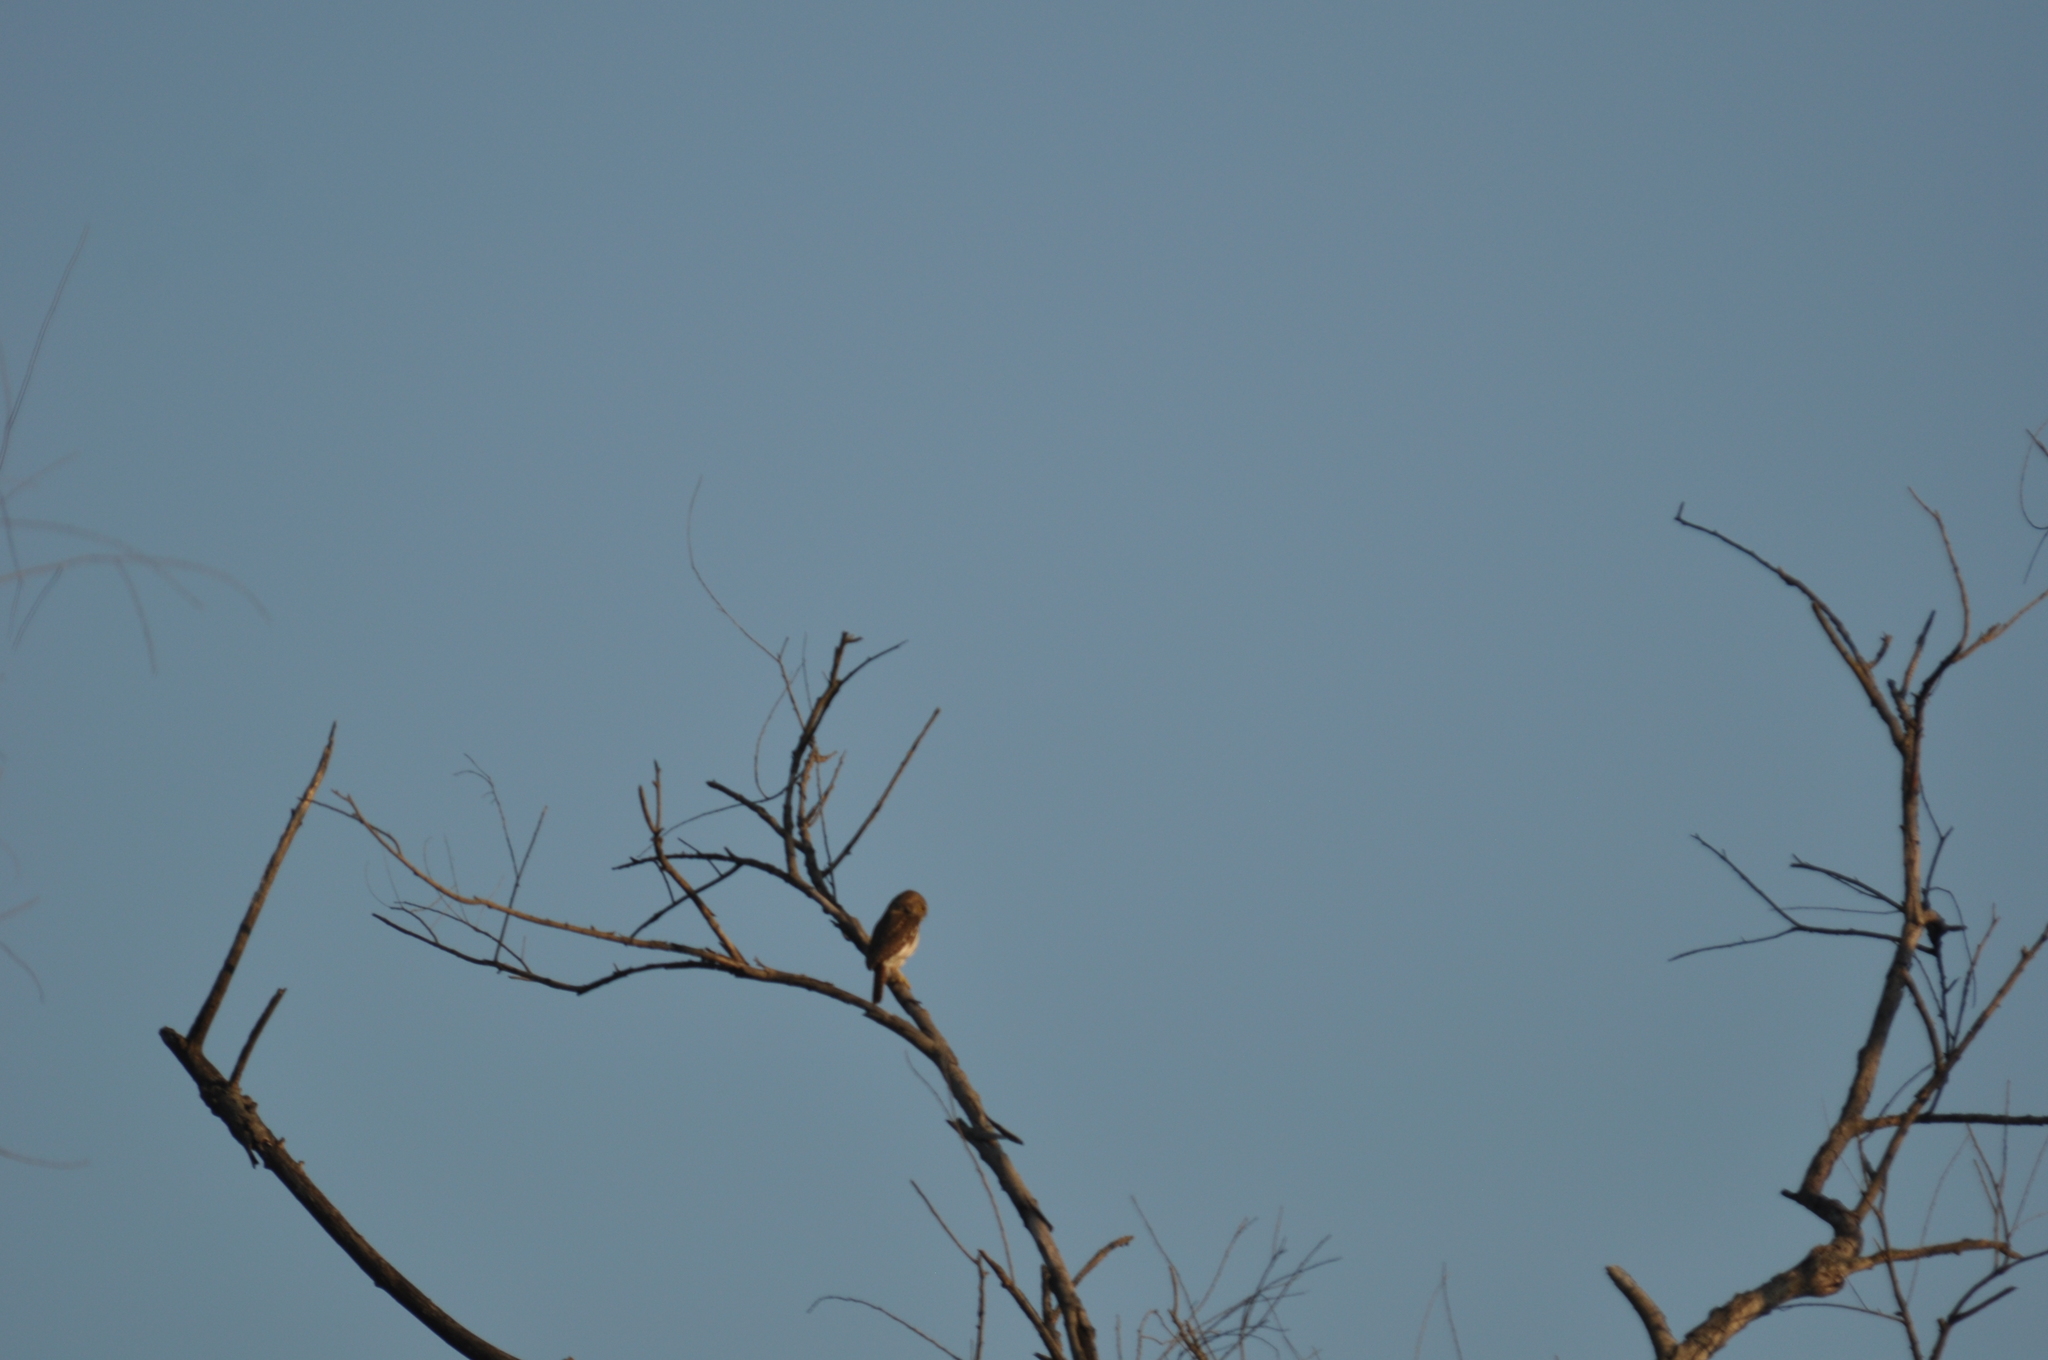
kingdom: Animalia
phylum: Chordata
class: Aves
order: Strigiformes
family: Strigidae
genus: Glaucidium
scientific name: Glaucidium brasilianum
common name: Ferruginous pygmy-owl
